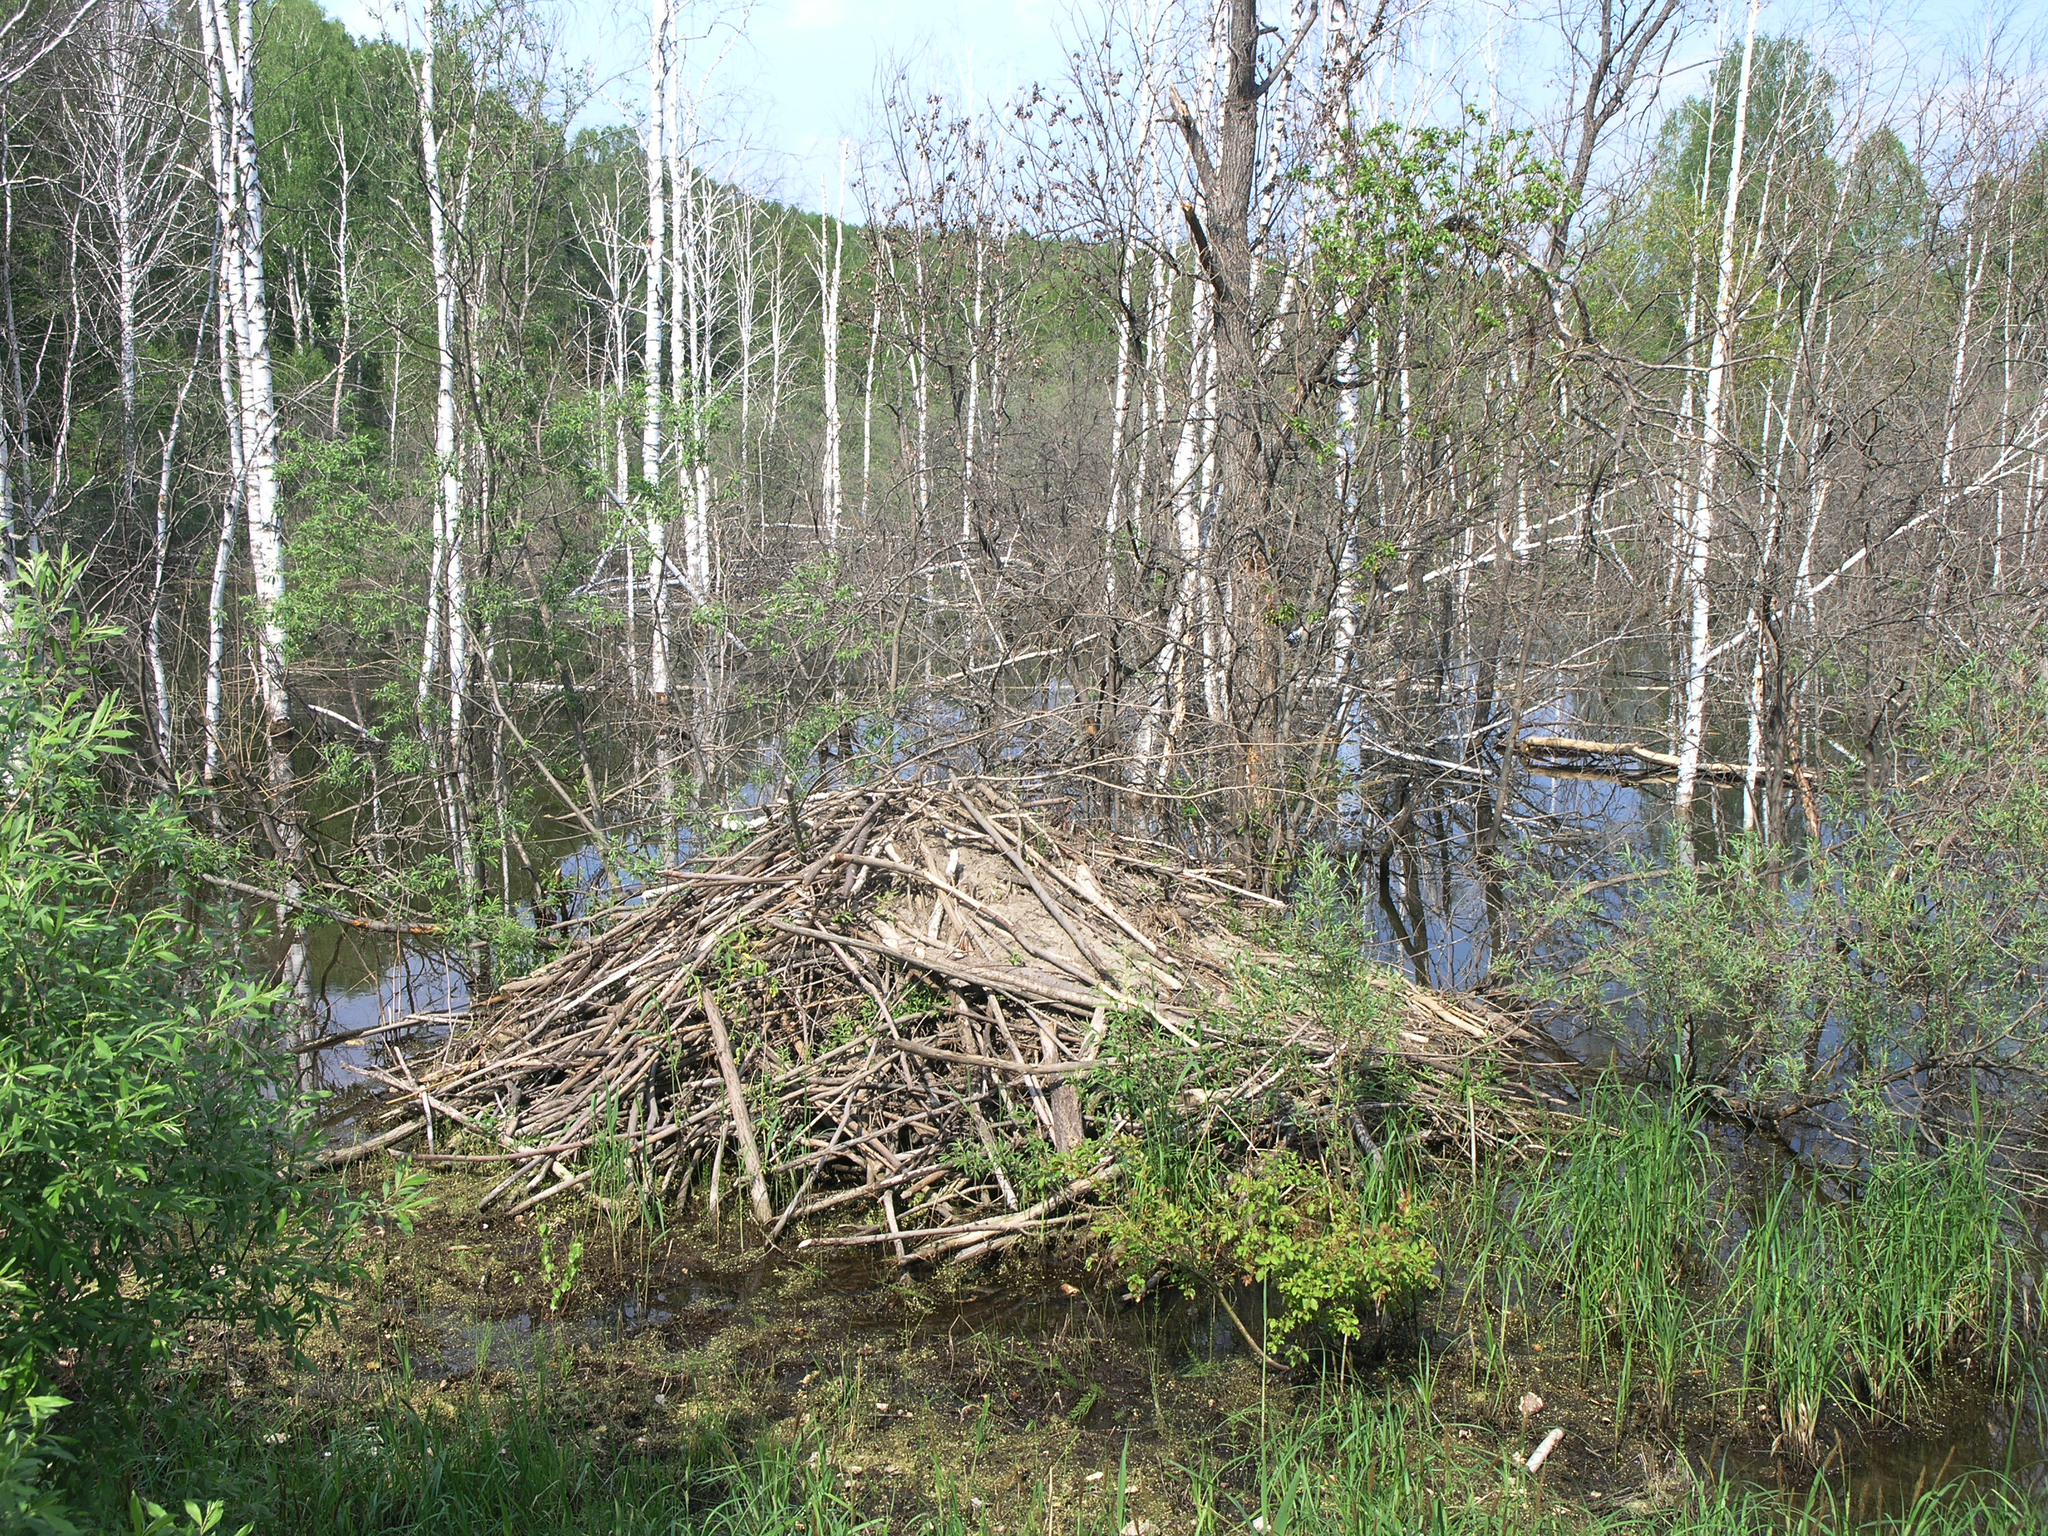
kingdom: Animalia
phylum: Chordata
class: Mammalia
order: Rodentia
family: Castoridae
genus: Castor
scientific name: Castor fiber
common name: Eurasian beaver
